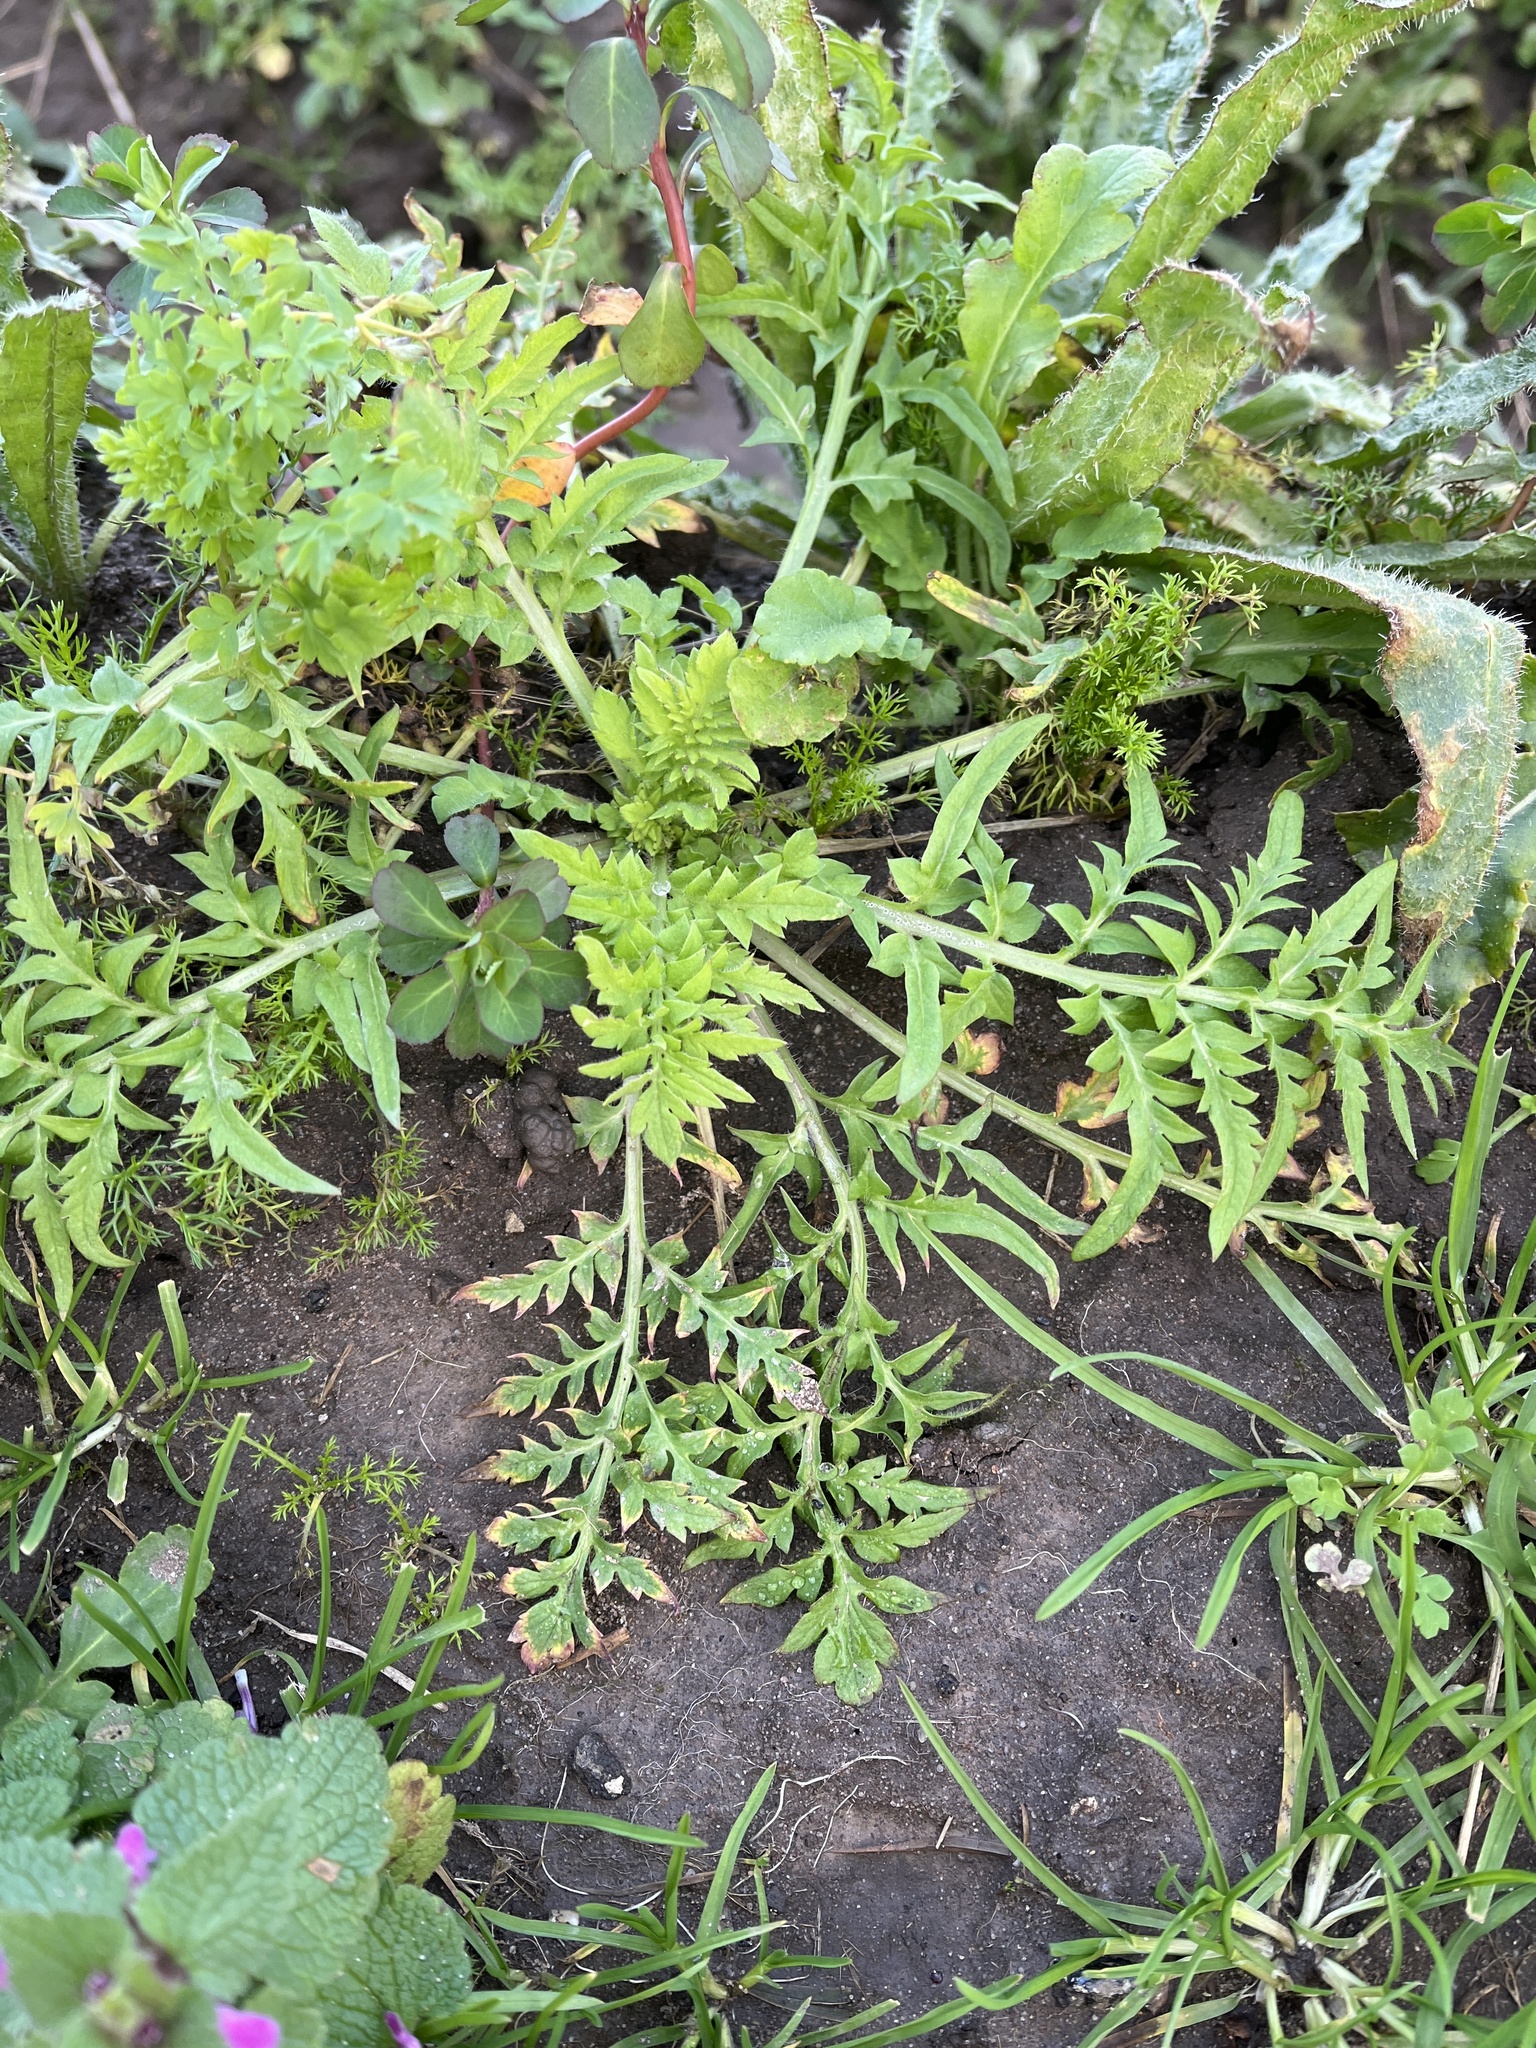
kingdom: Plantae
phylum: Tracheophyta
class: Magnoliopsida
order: Boraginales
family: Hydrophyllaceae
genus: Phacelia
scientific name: Phacelia tanacetifolia
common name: Phacelia
